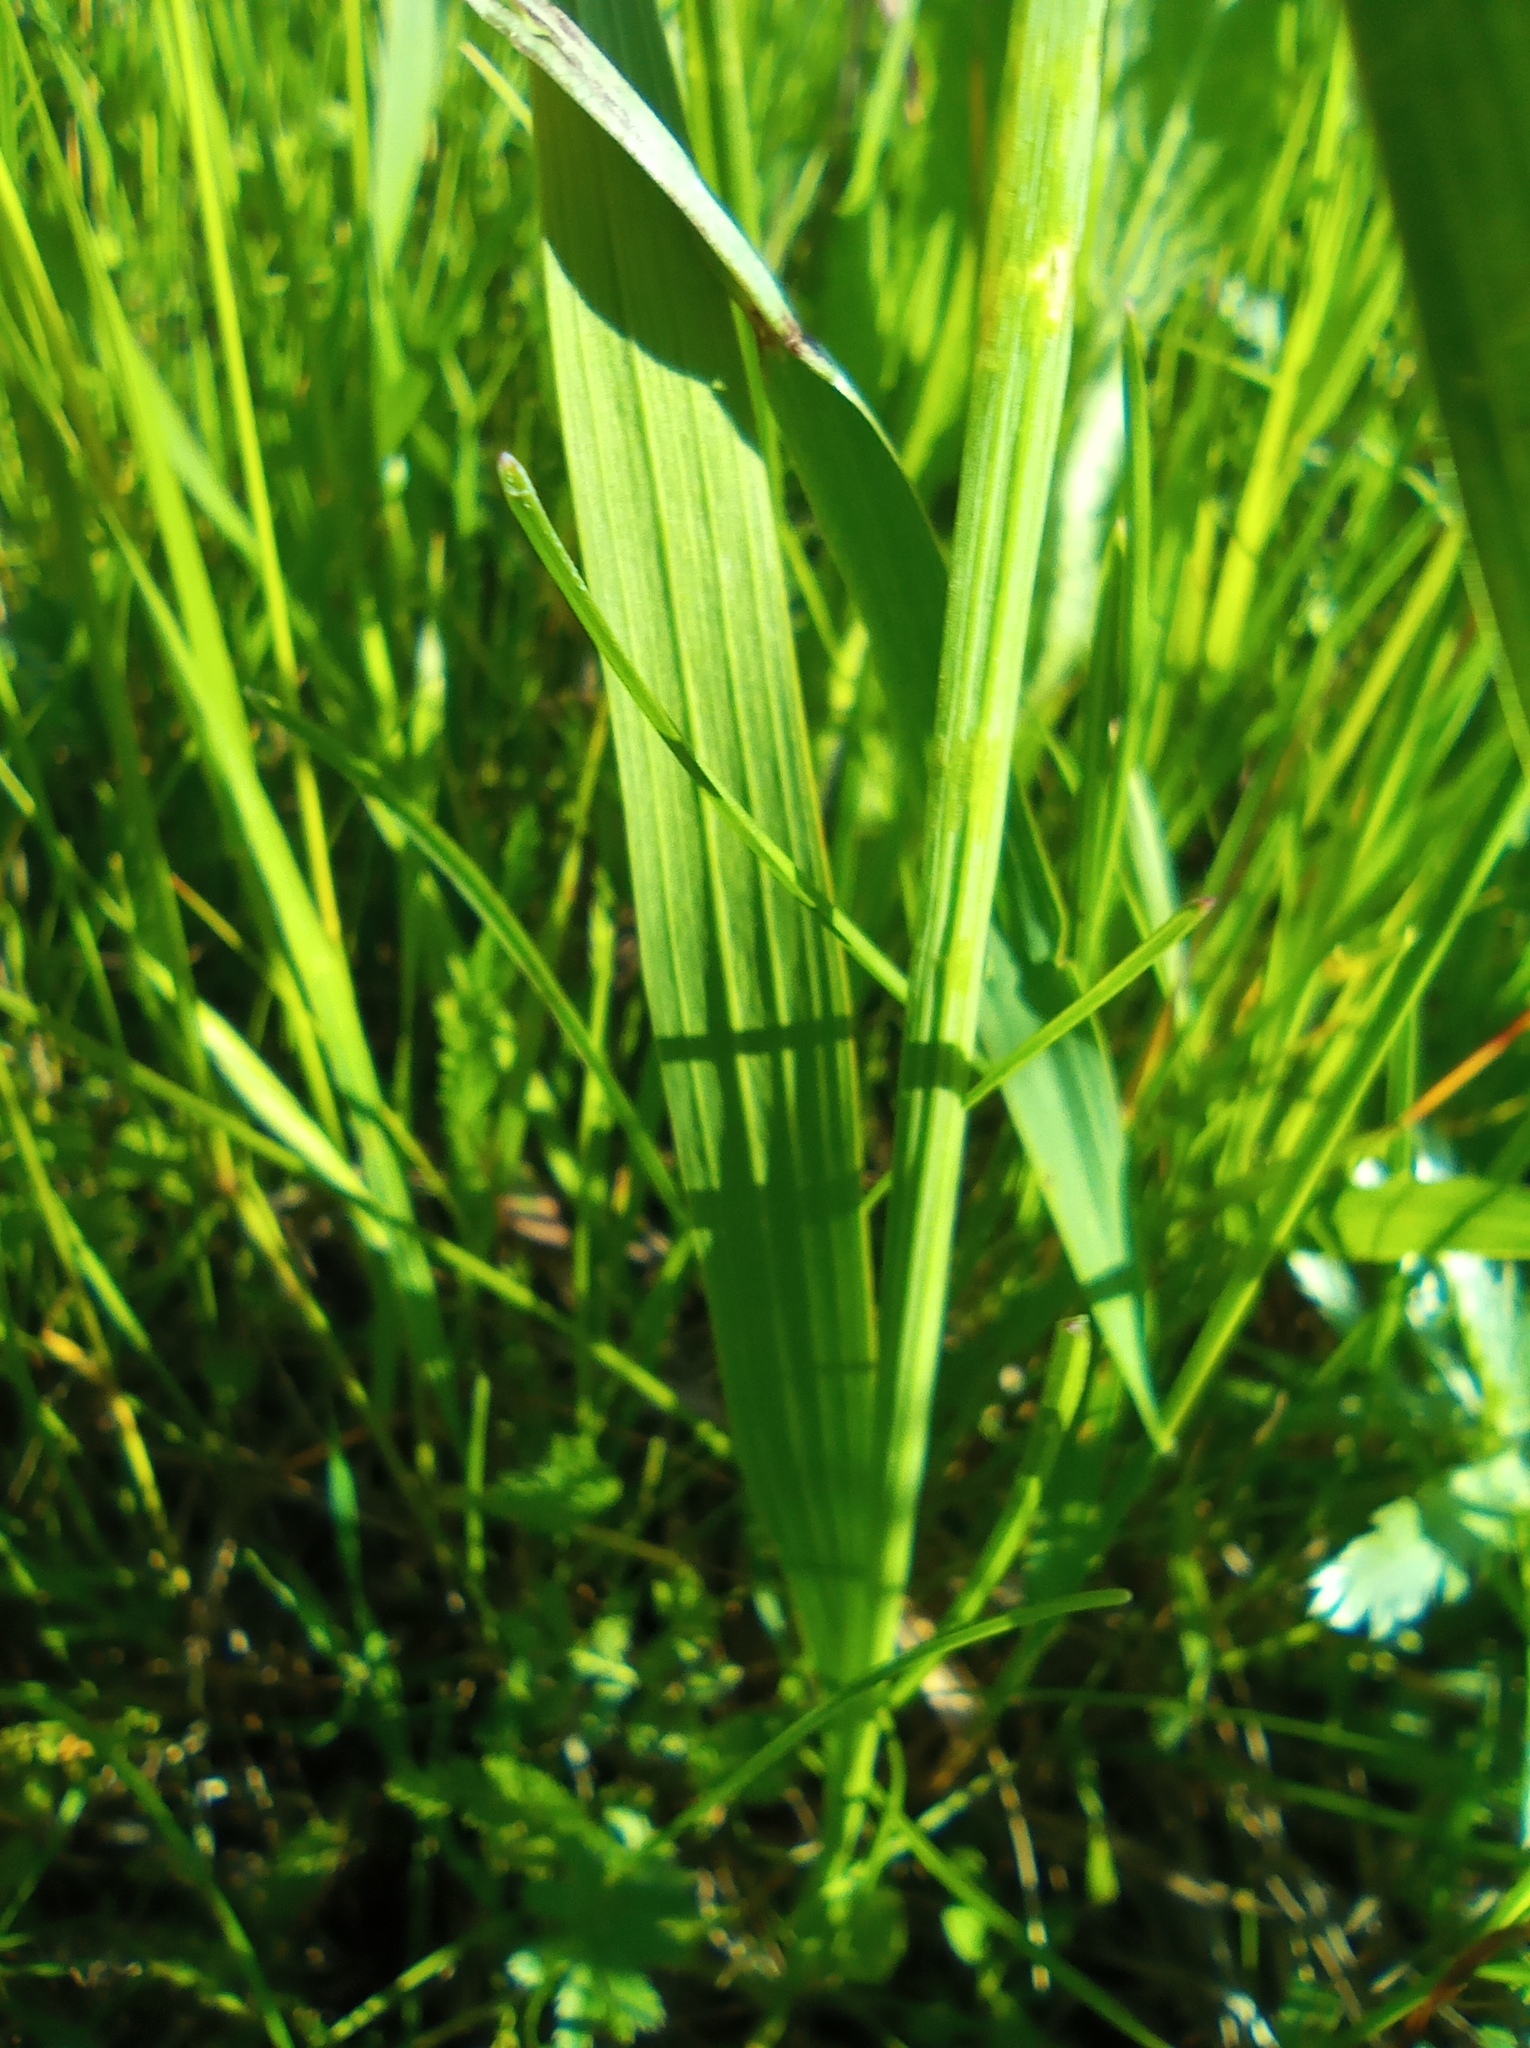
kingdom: Plantae
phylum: Tracheophyta
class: Liliopsida
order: Asparagales
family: Iridaceae
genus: Gladiolus
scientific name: Gladiolus tenuis
